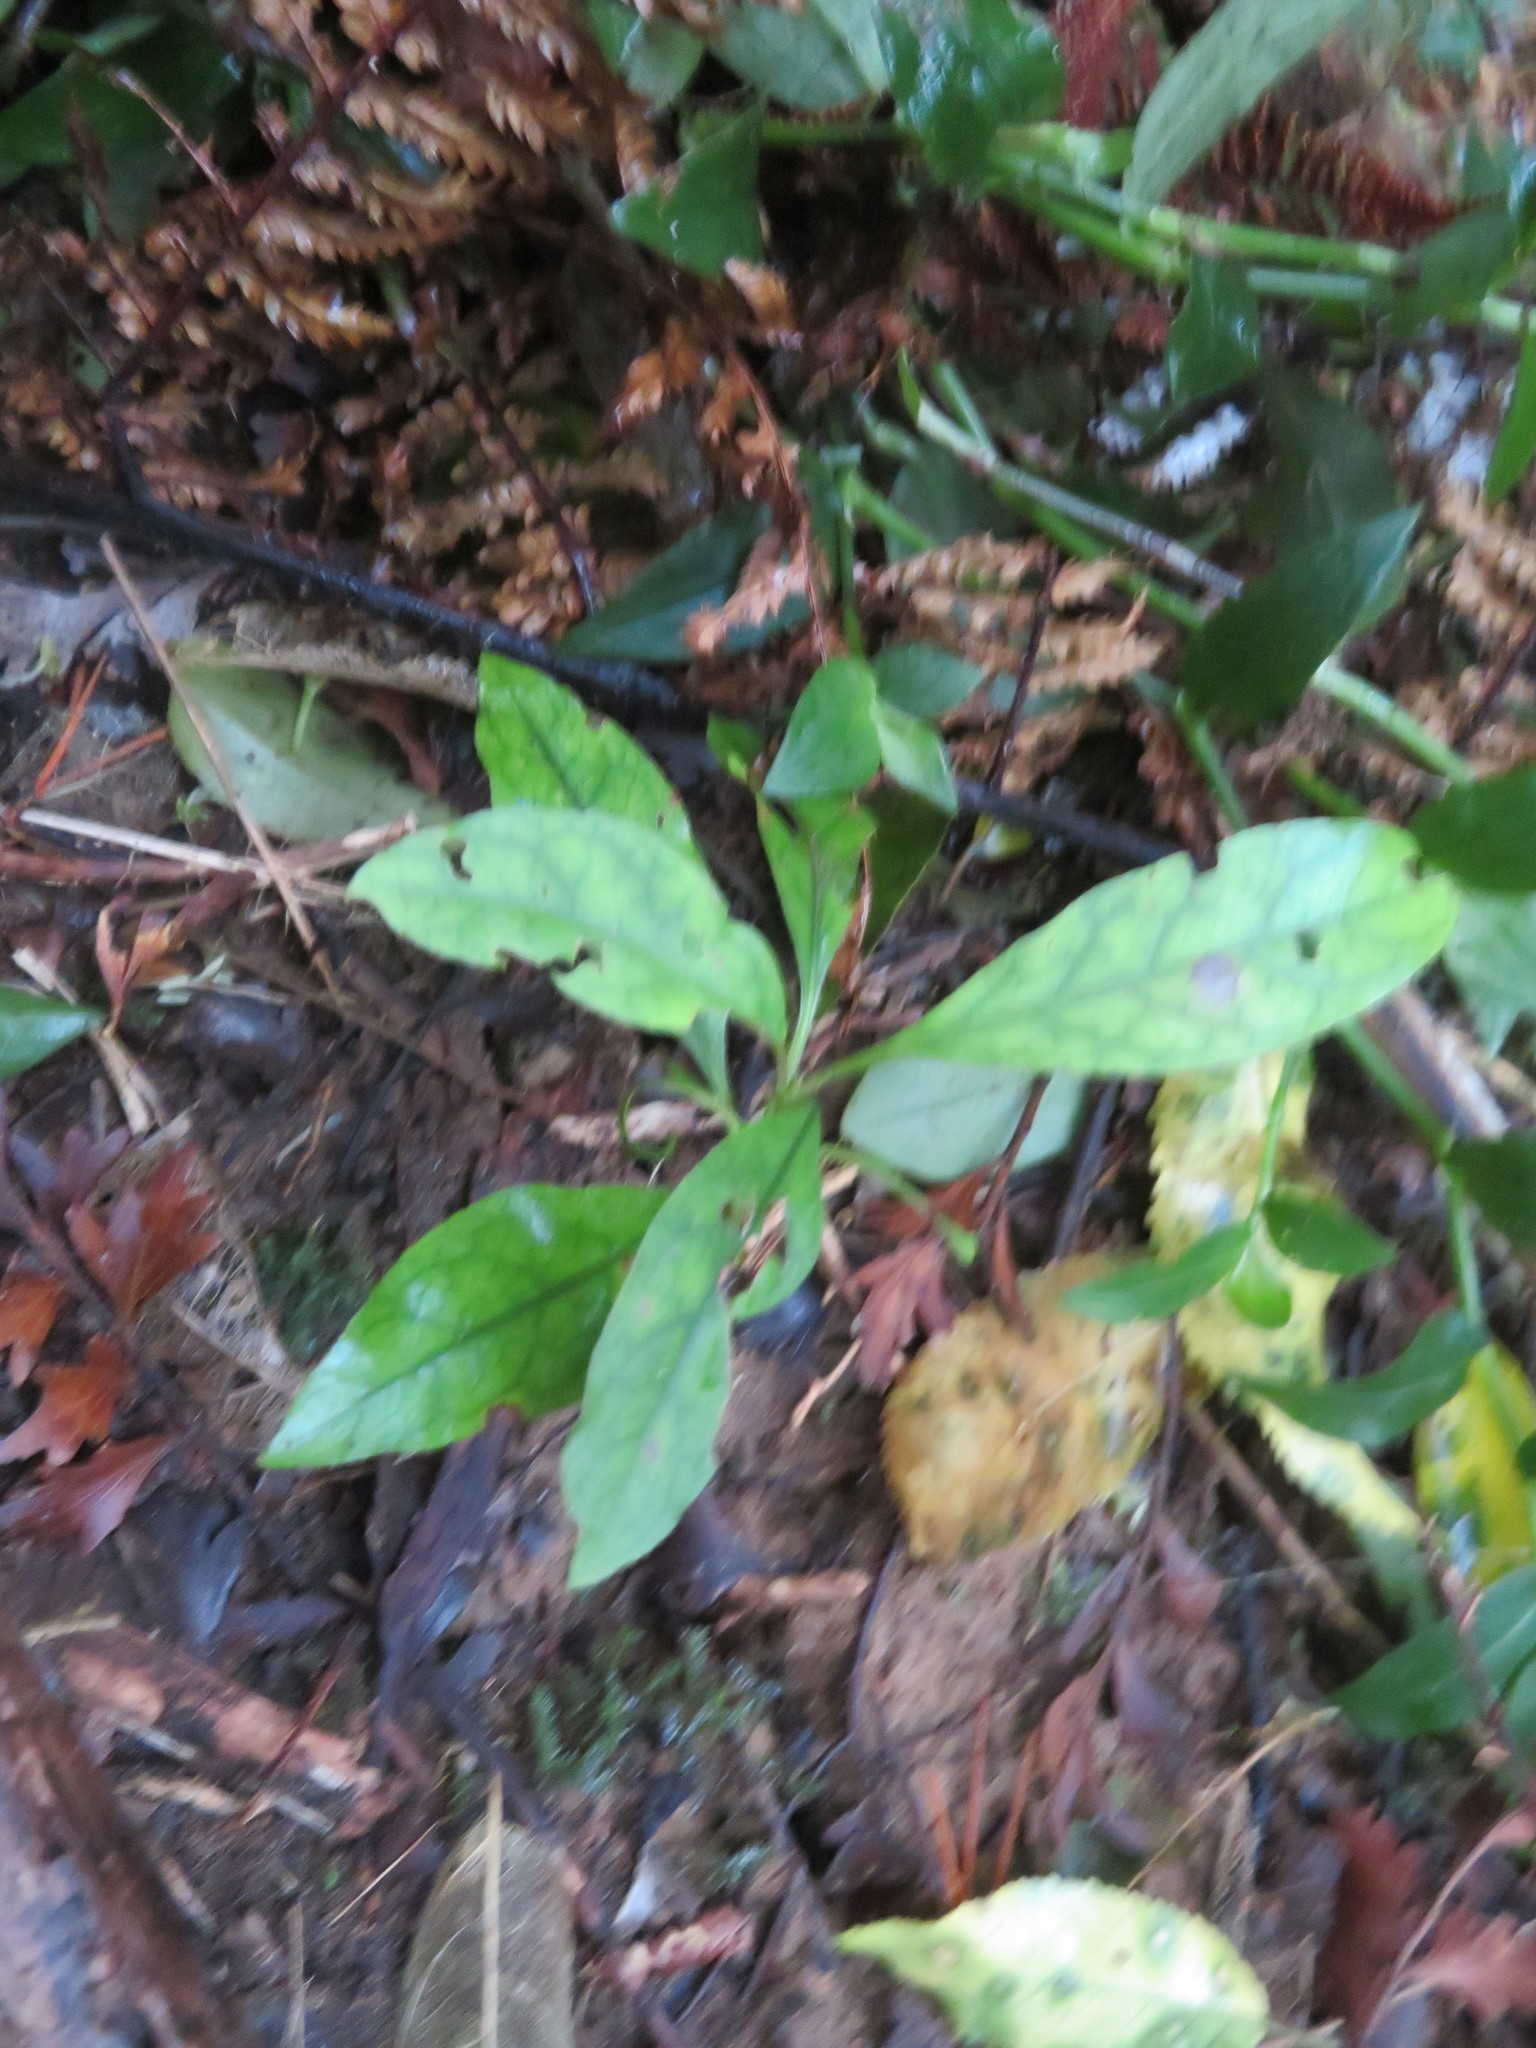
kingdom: Plantae
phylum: Tracheophyta
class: Magnoliopsida
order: Gentianales
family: Rubiaceae
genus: Coprosma
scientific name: Coprosma autumnalis
